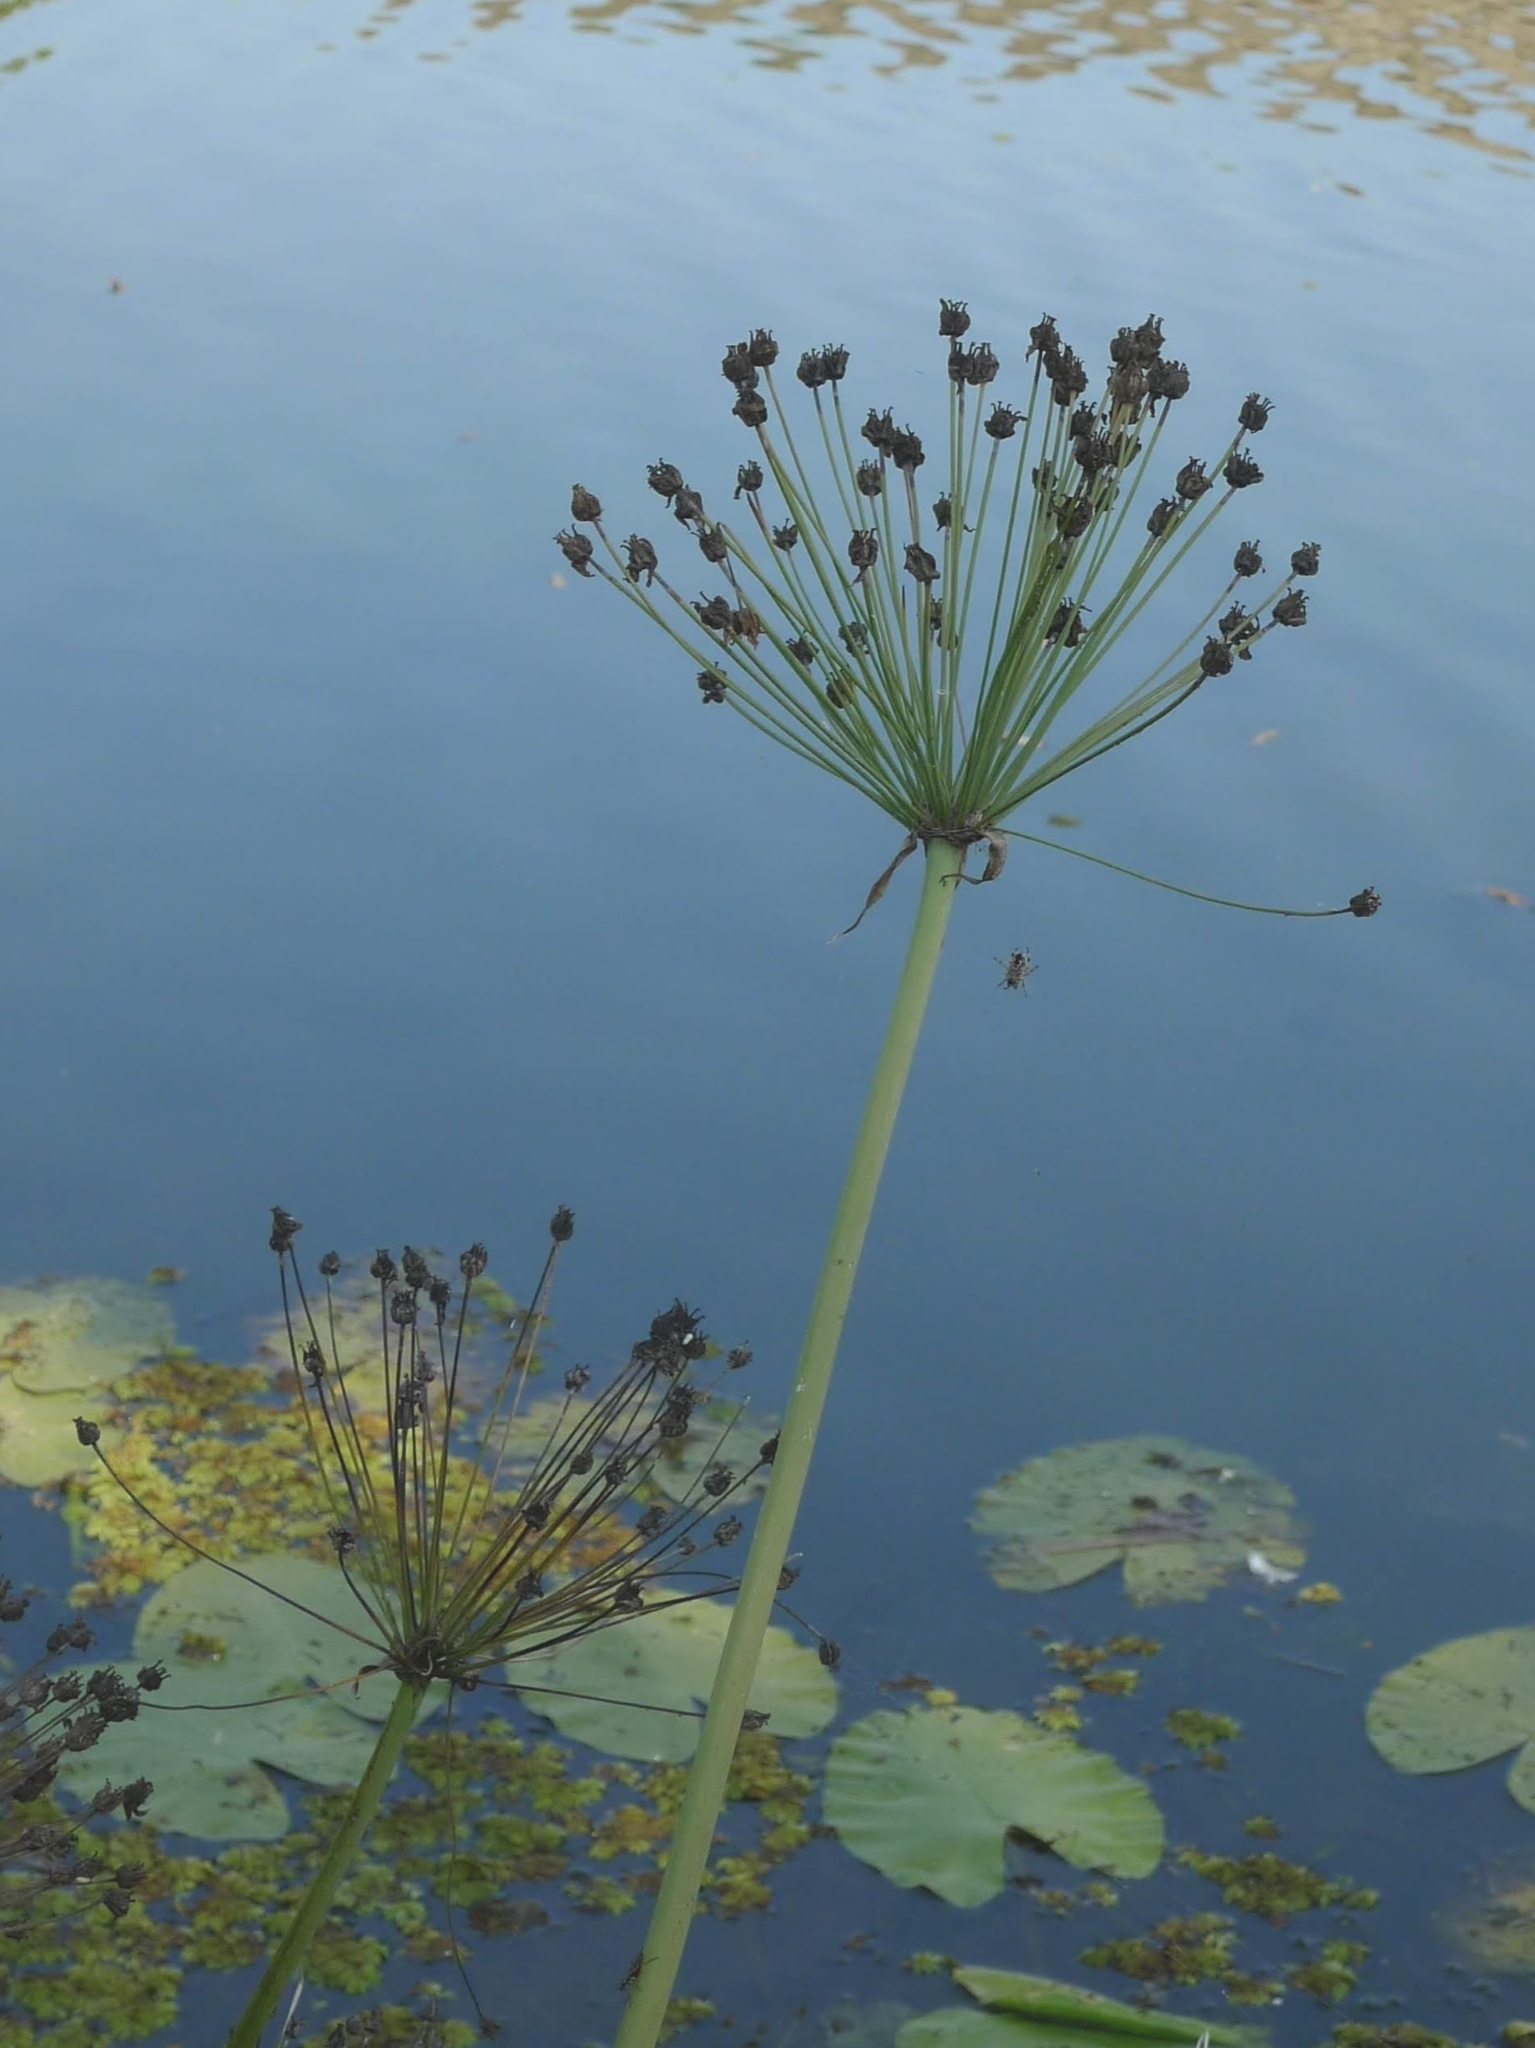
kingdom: Plantae
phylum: Tracheophyta
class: Liliopsida
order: Alismatales
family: Butomaceae
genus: Butomus
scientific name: Butomus umbellatus
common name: Flowering-rush
